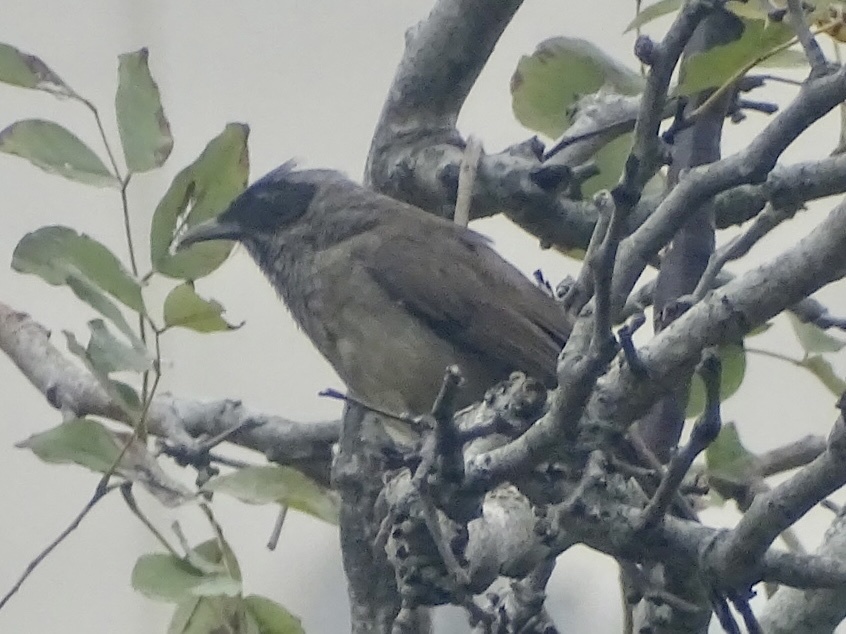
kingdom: Animalia
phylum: Chordata
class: Aves
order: Passeriformes
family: Leiothrichidae
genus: Garrulax
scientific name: Garrulax perspicillatus
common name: Masked laughingthrush
